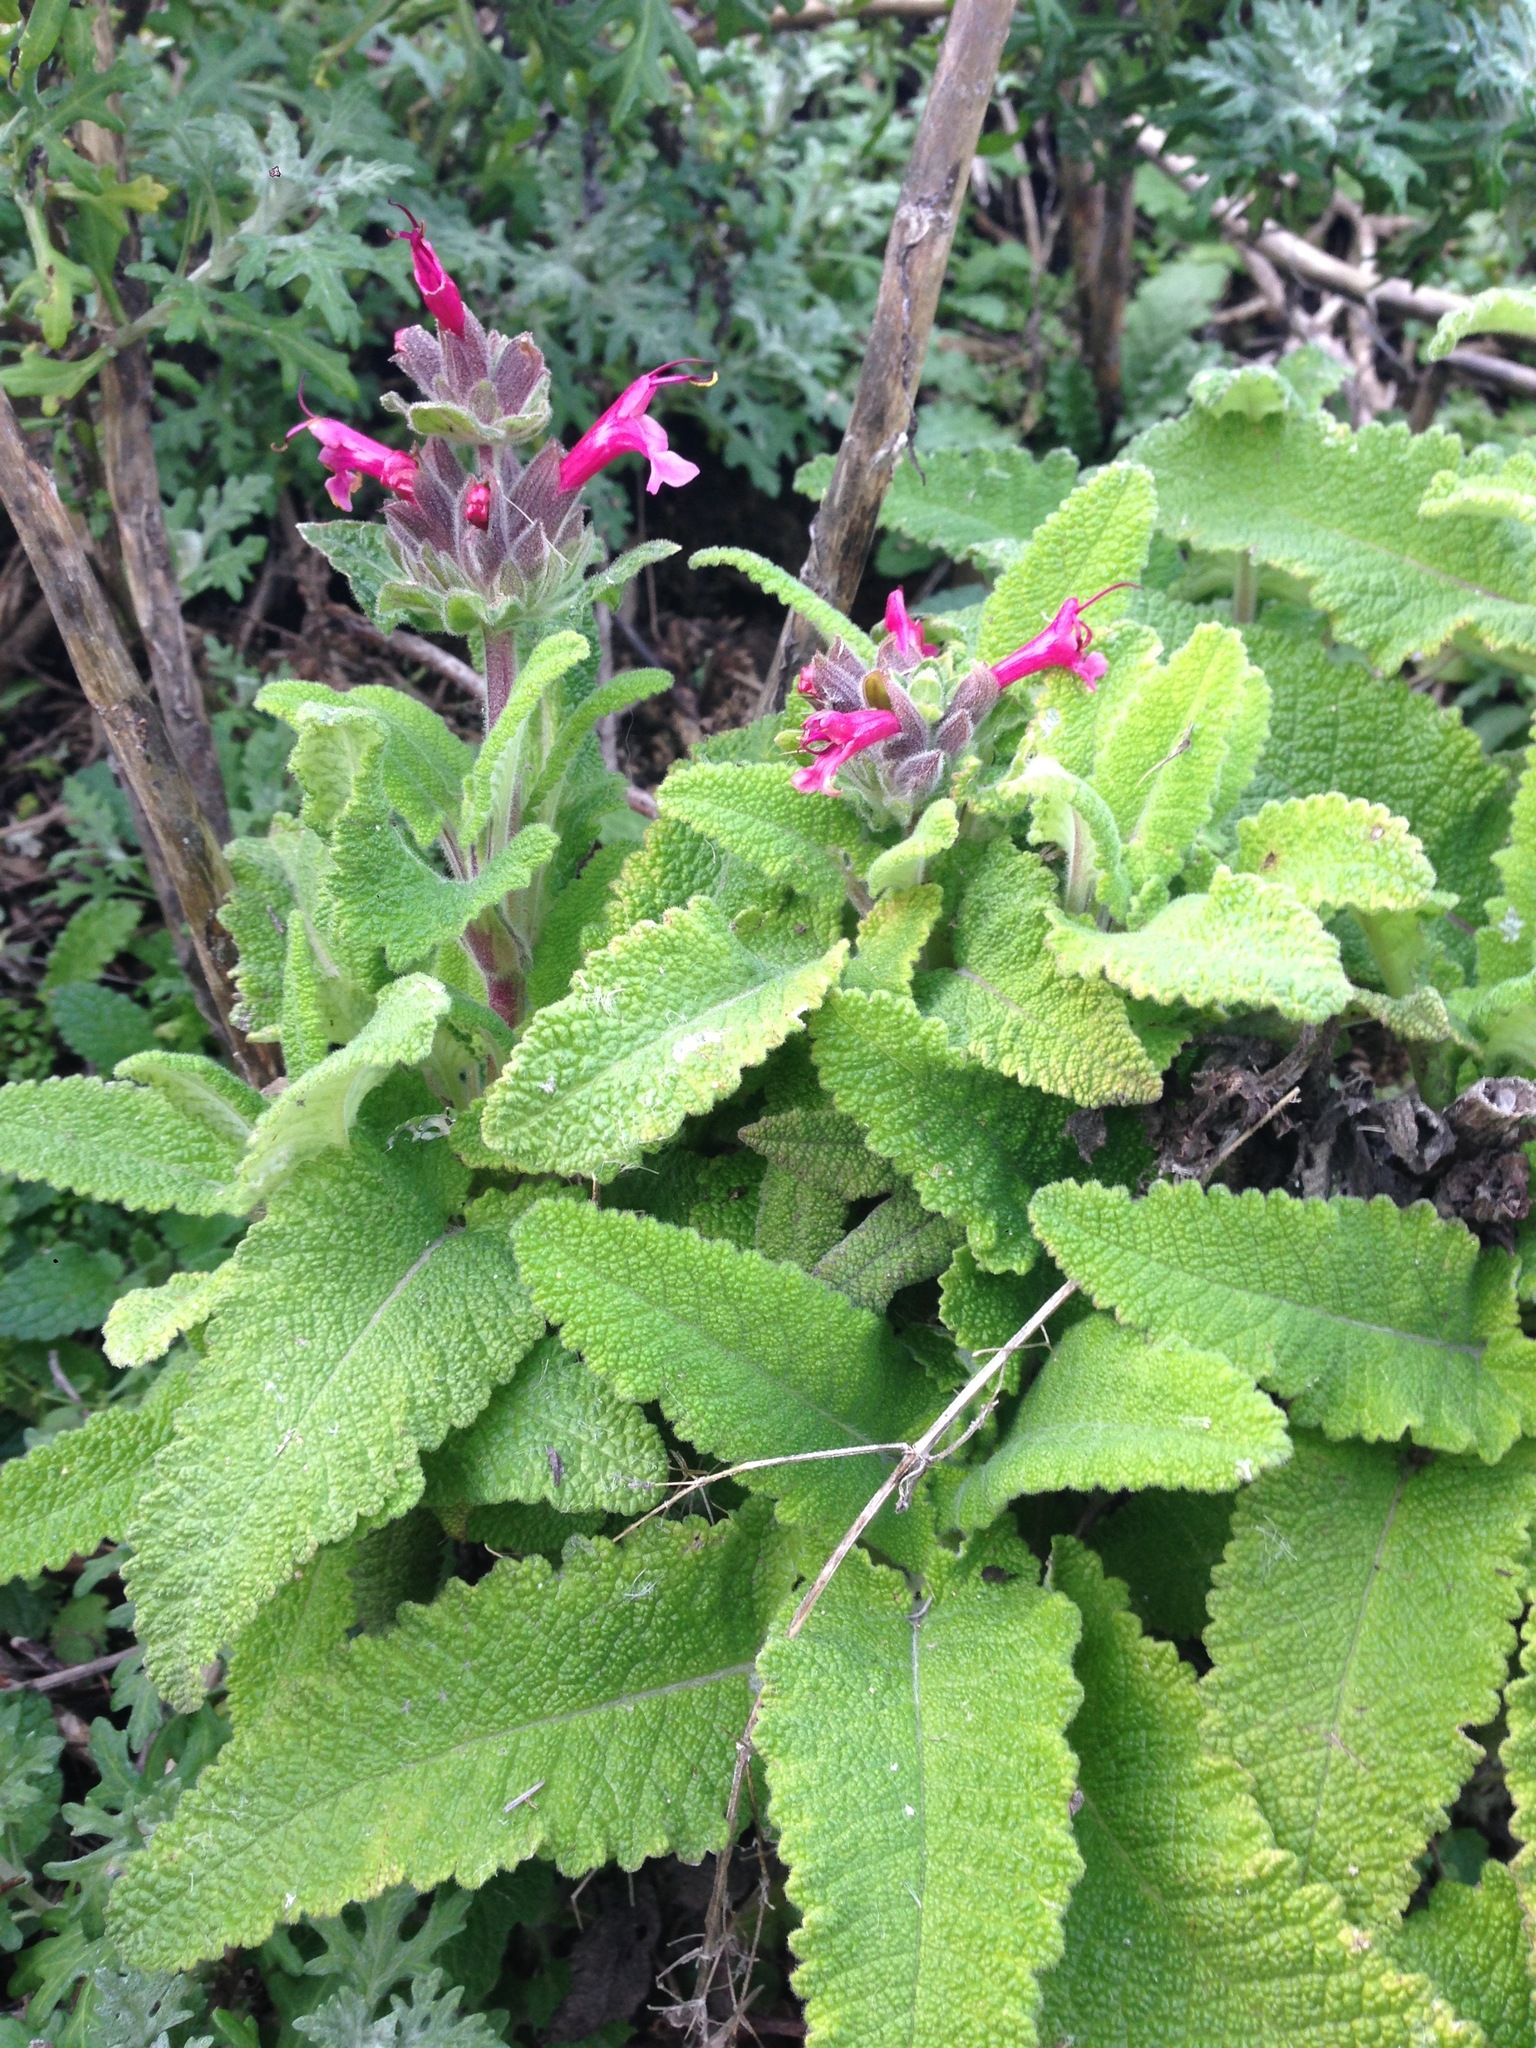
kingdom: Plantae
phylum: Tracheophyta
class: Magnoliopsida
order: Lamiales
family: Lamiaceae
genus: Salvia
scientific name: Salvia spathacea
